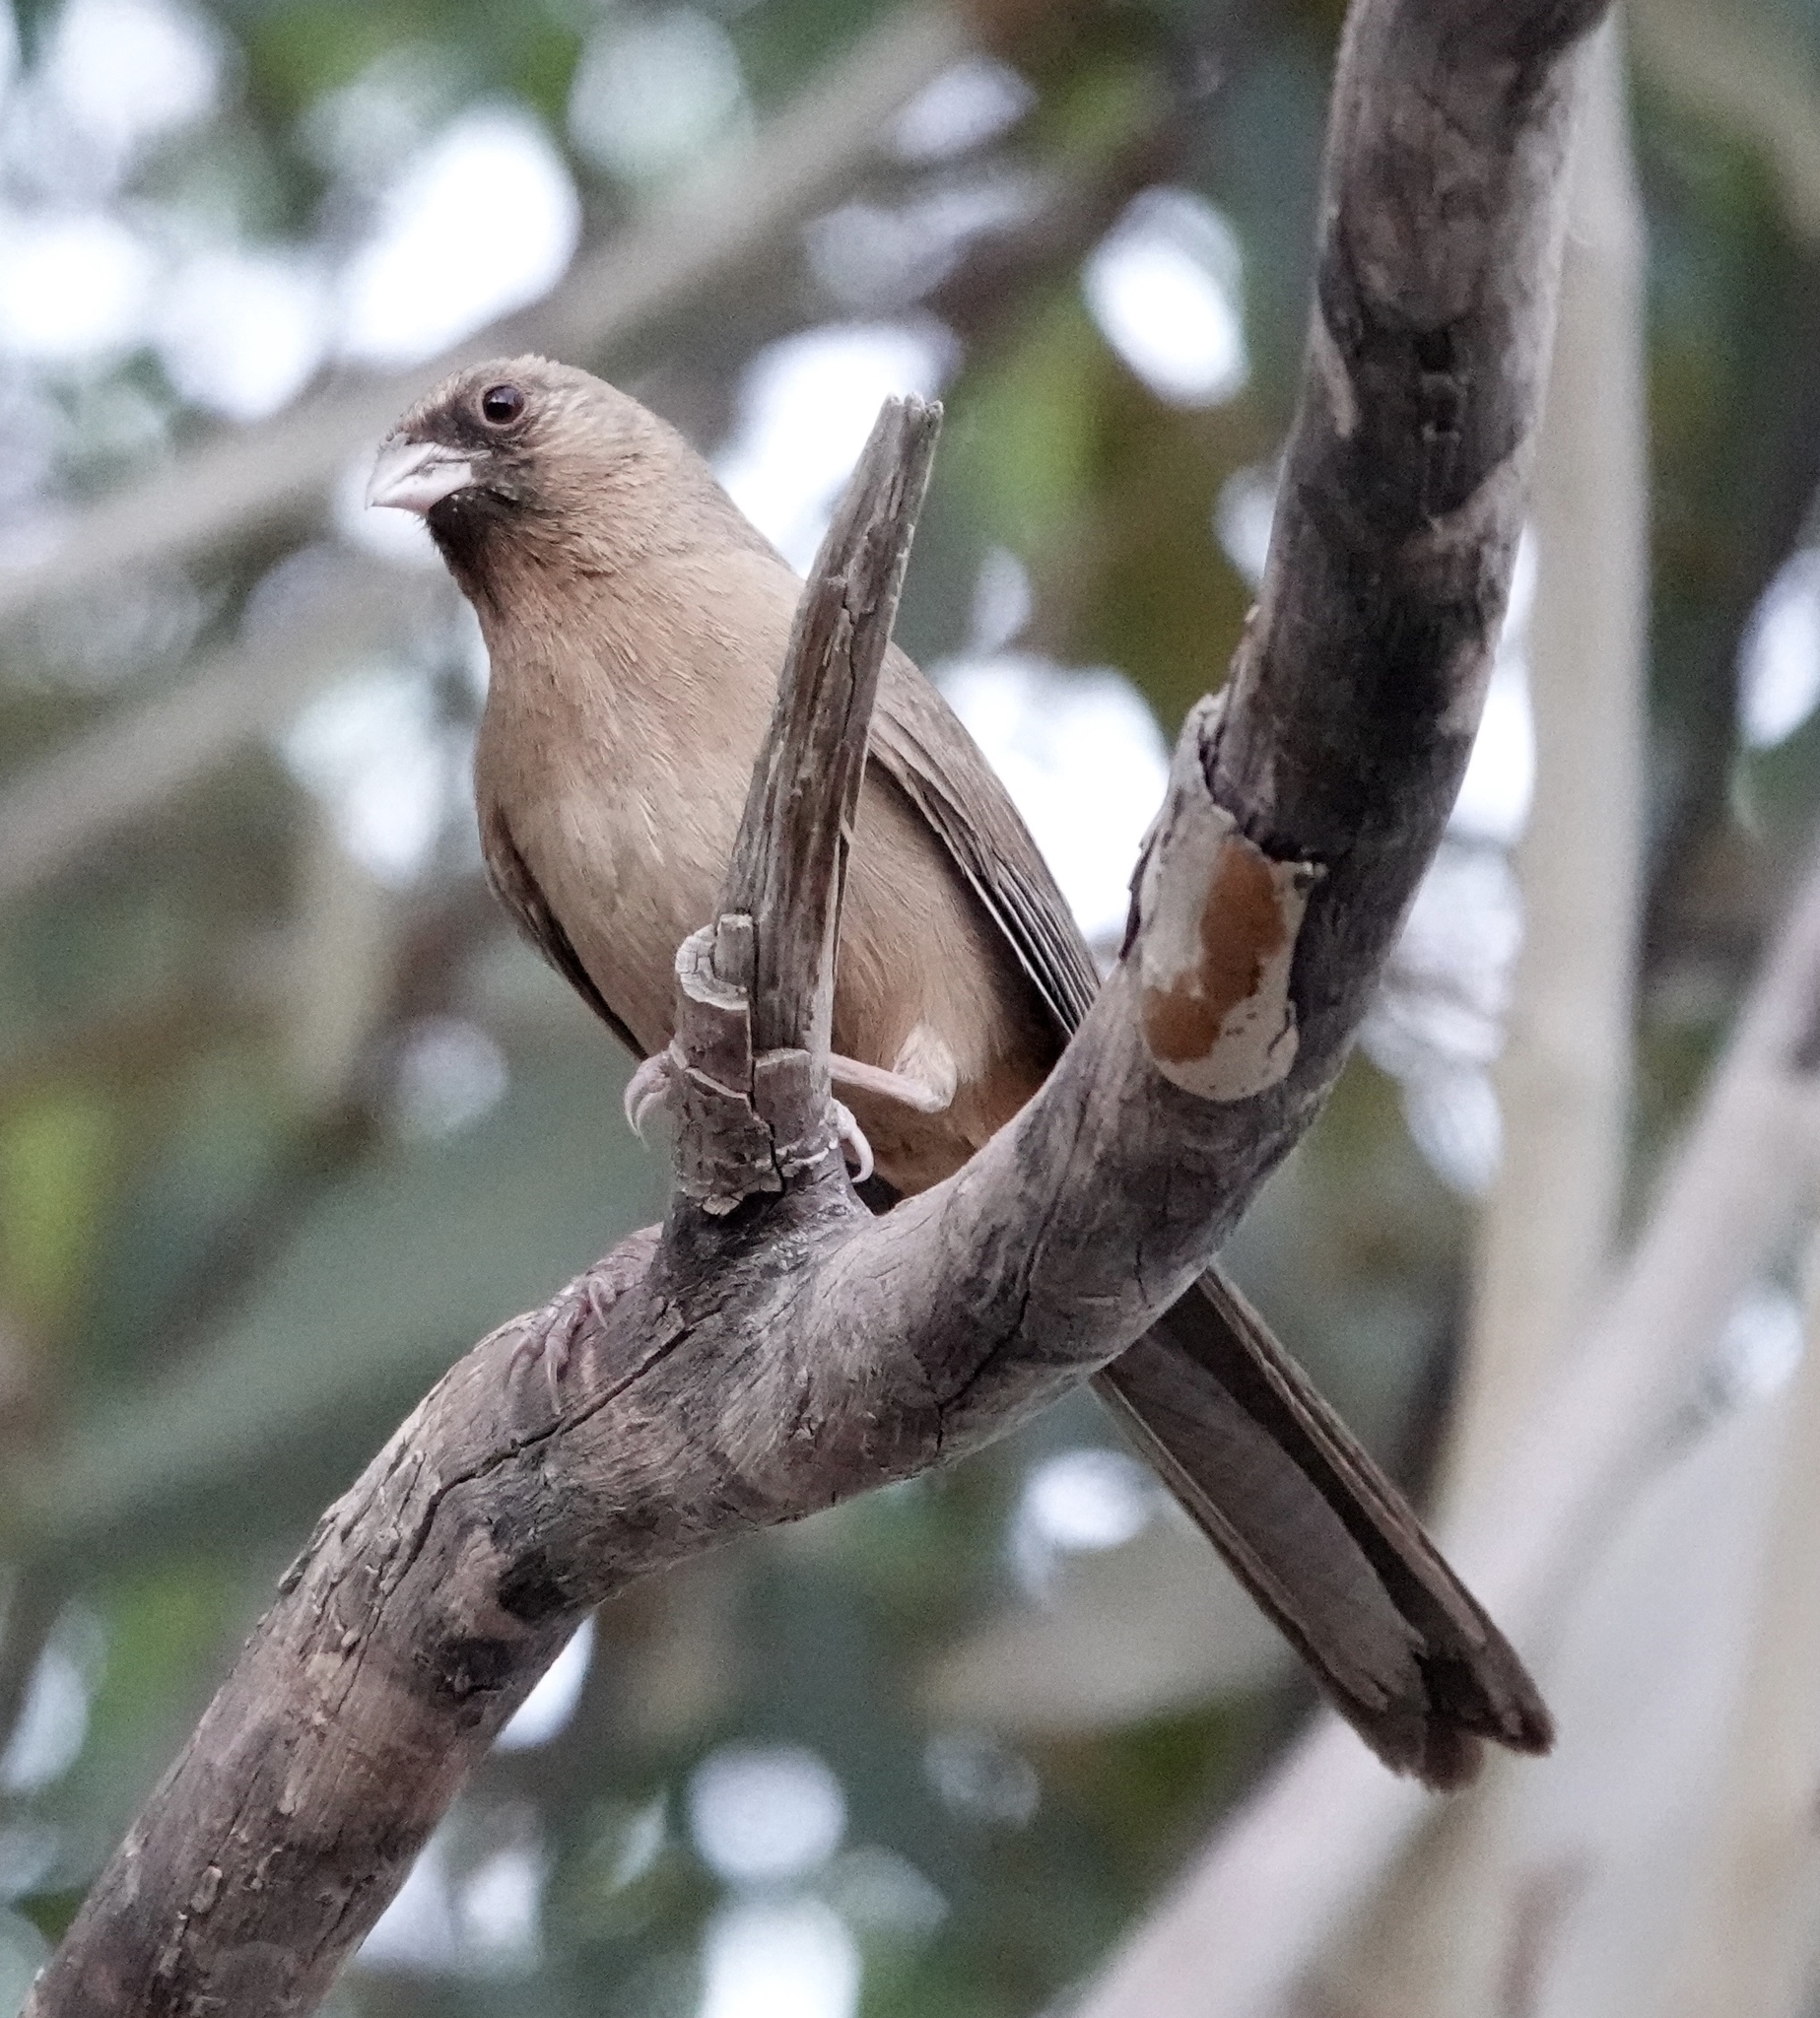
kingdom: Animalia
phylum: Chordata
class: Aves
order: Passeriformes
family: Passerellidae
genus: Melozone
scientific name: Melozone aberti
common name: Abert's towhee
